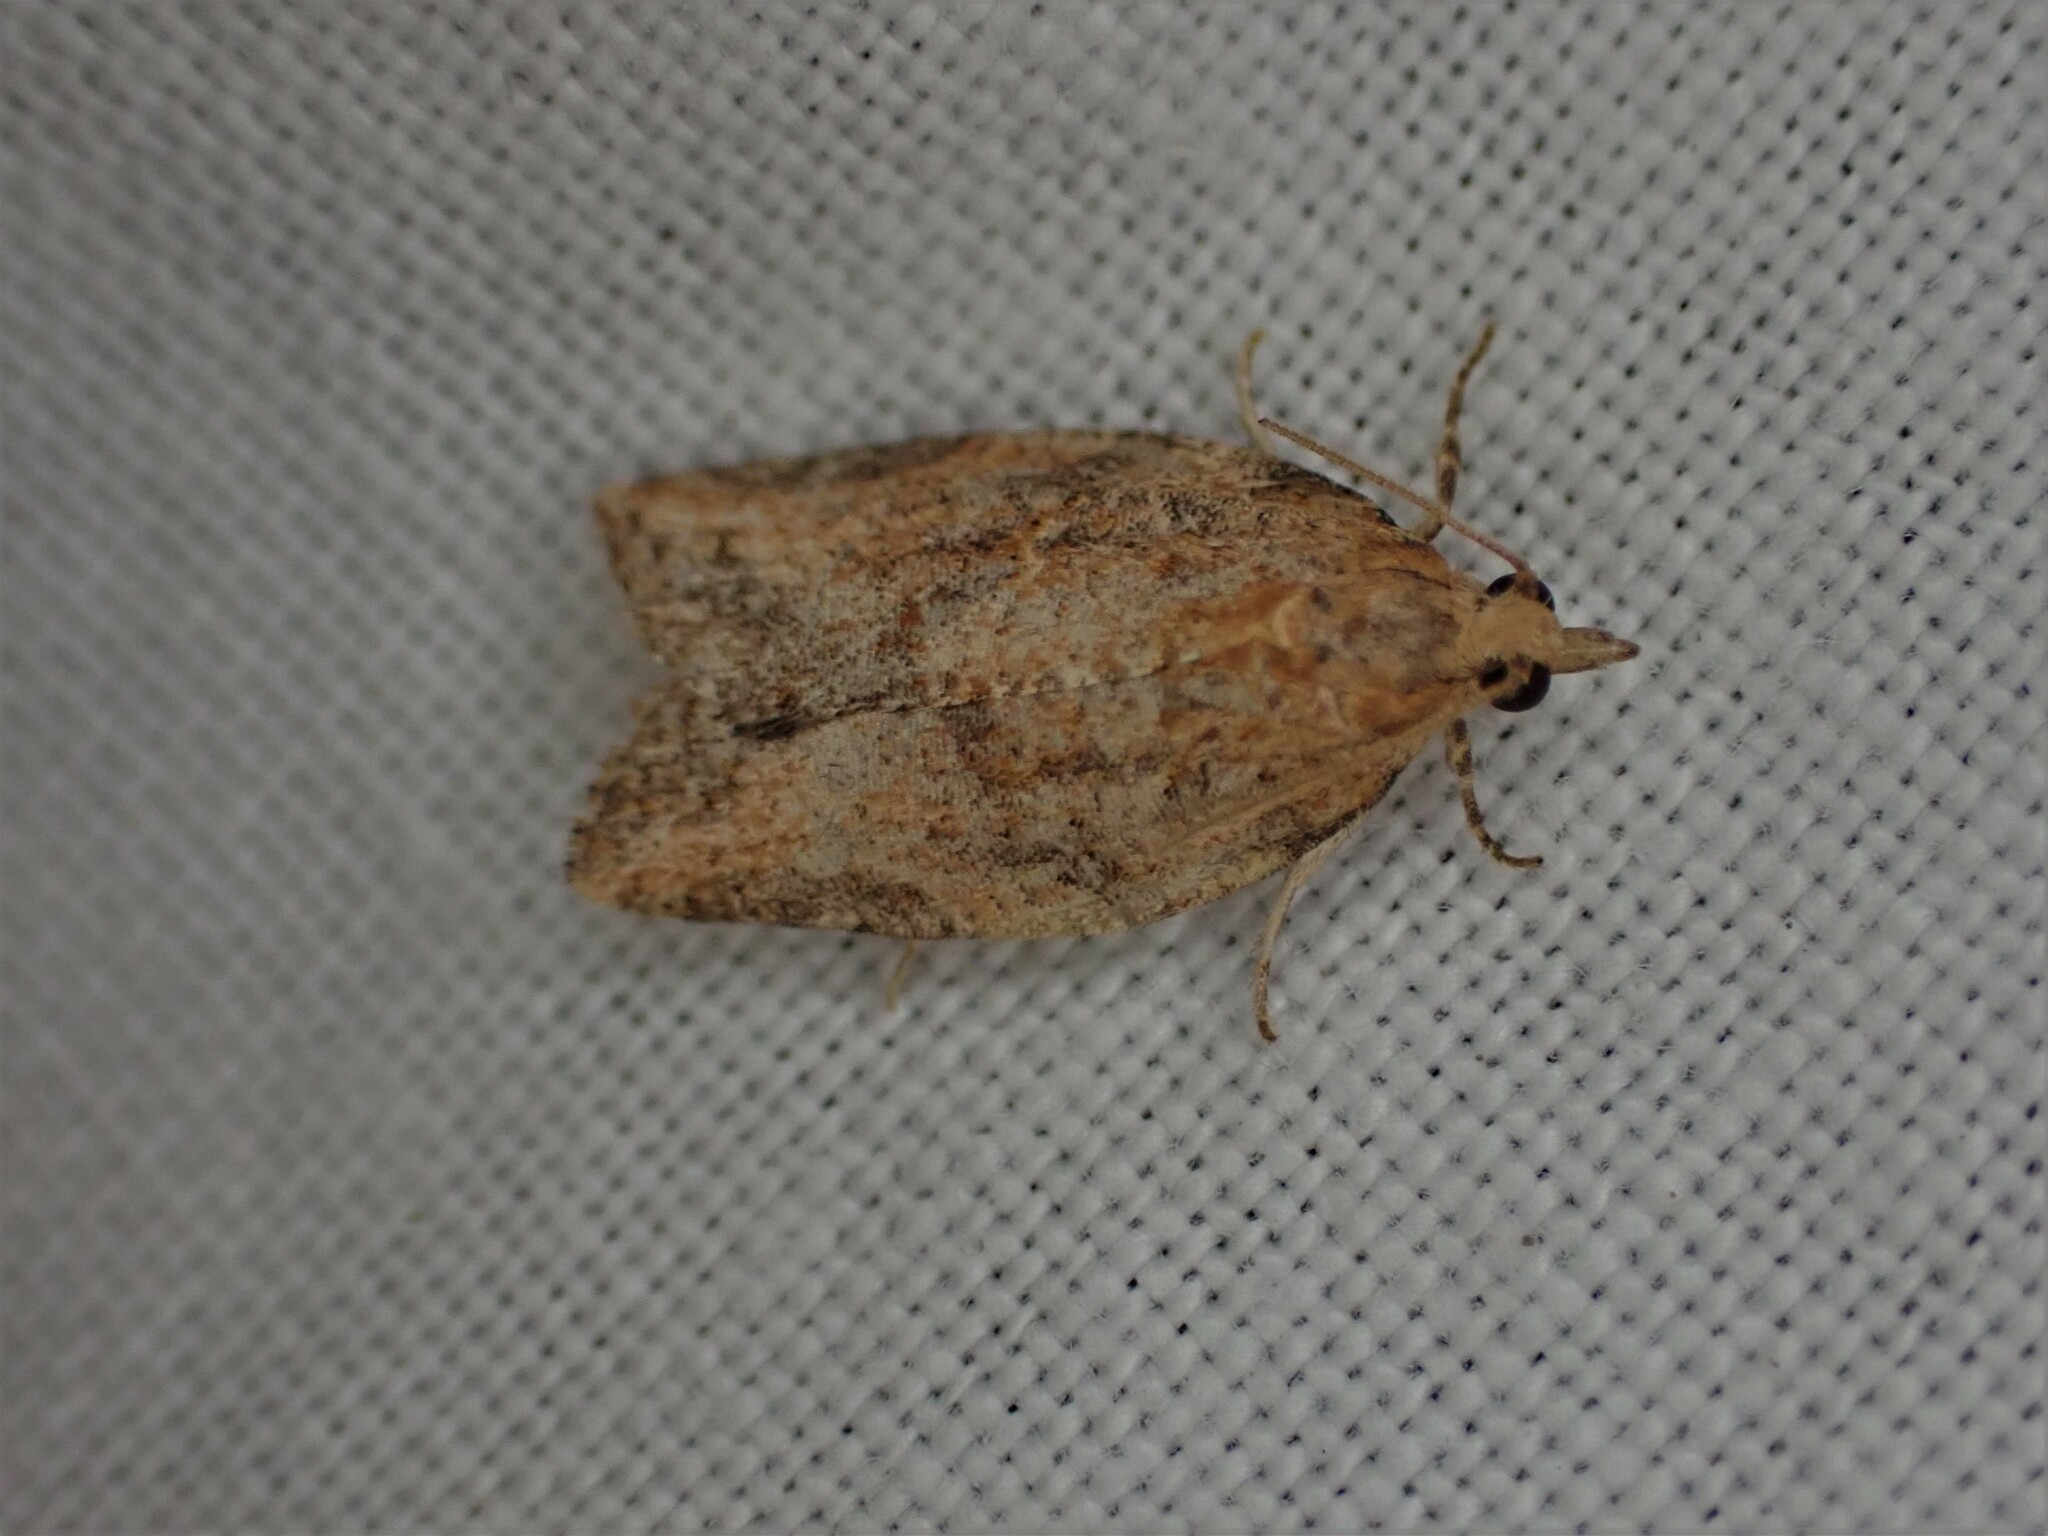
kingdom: Animalia
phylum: Arthropoda
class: Insecta
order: Lepidoptera
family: Tortricidae
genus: Epiphyas
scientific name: Epiphyas postvittana
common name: Light brown apple moth
